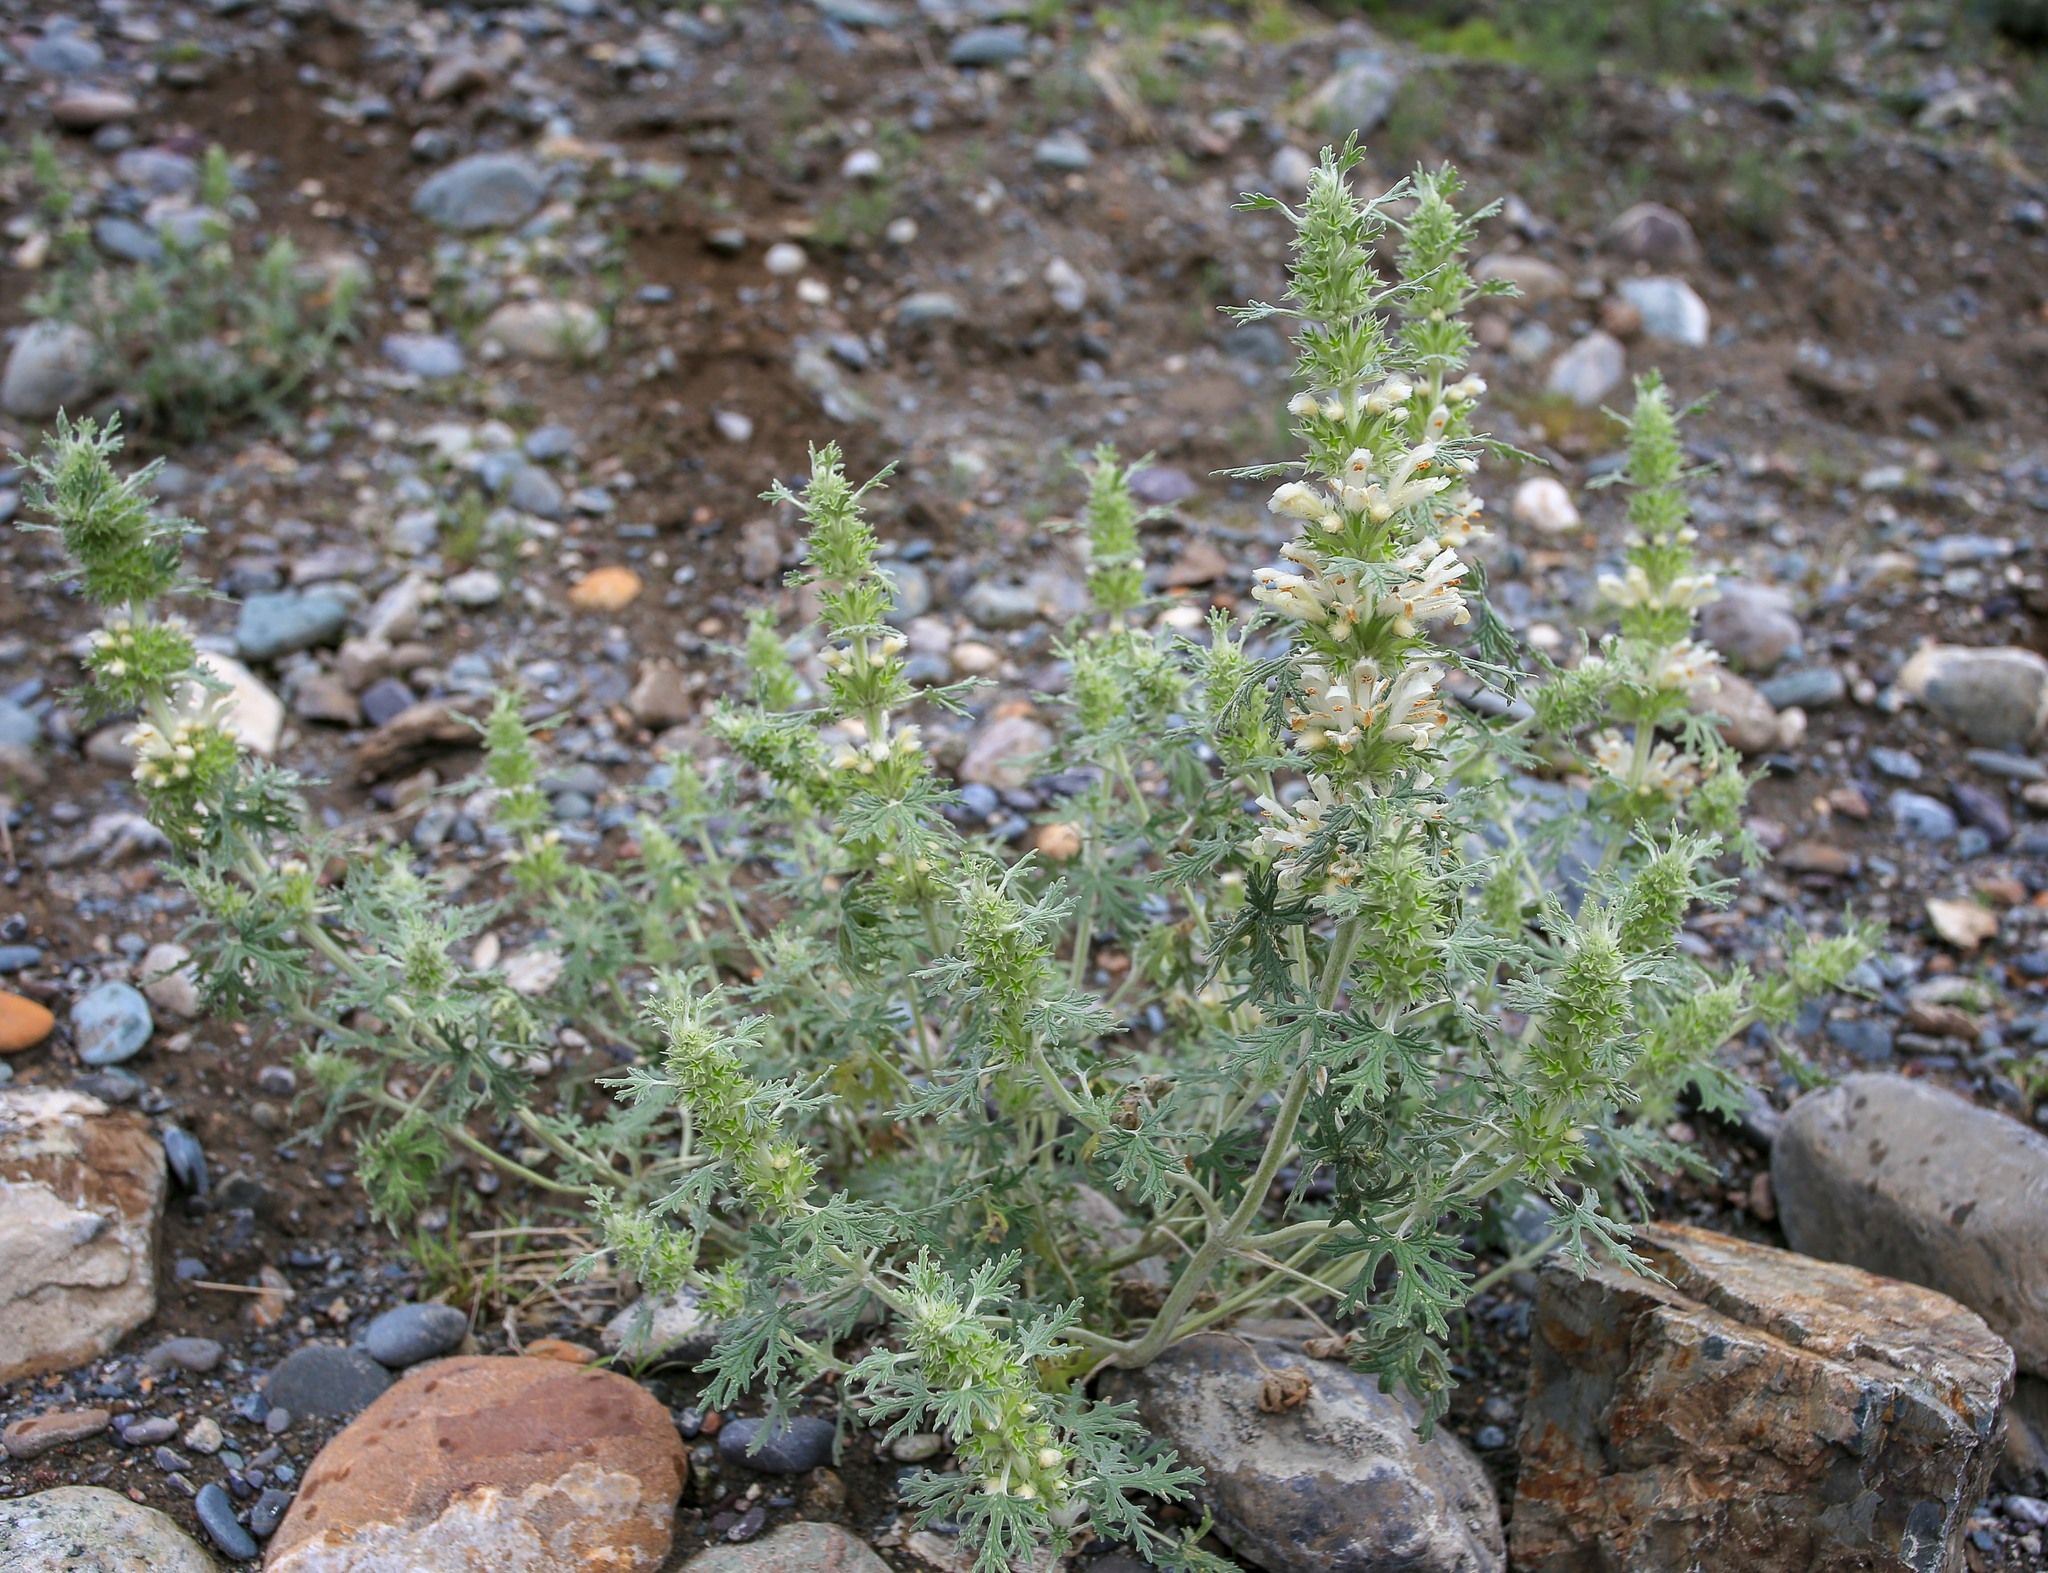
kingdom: Plantae
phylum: Tracheophyta
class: Magnoliopsida
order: Lamiales
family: Lamiaceae
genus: Panzerina
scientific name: Panzerina lanata
